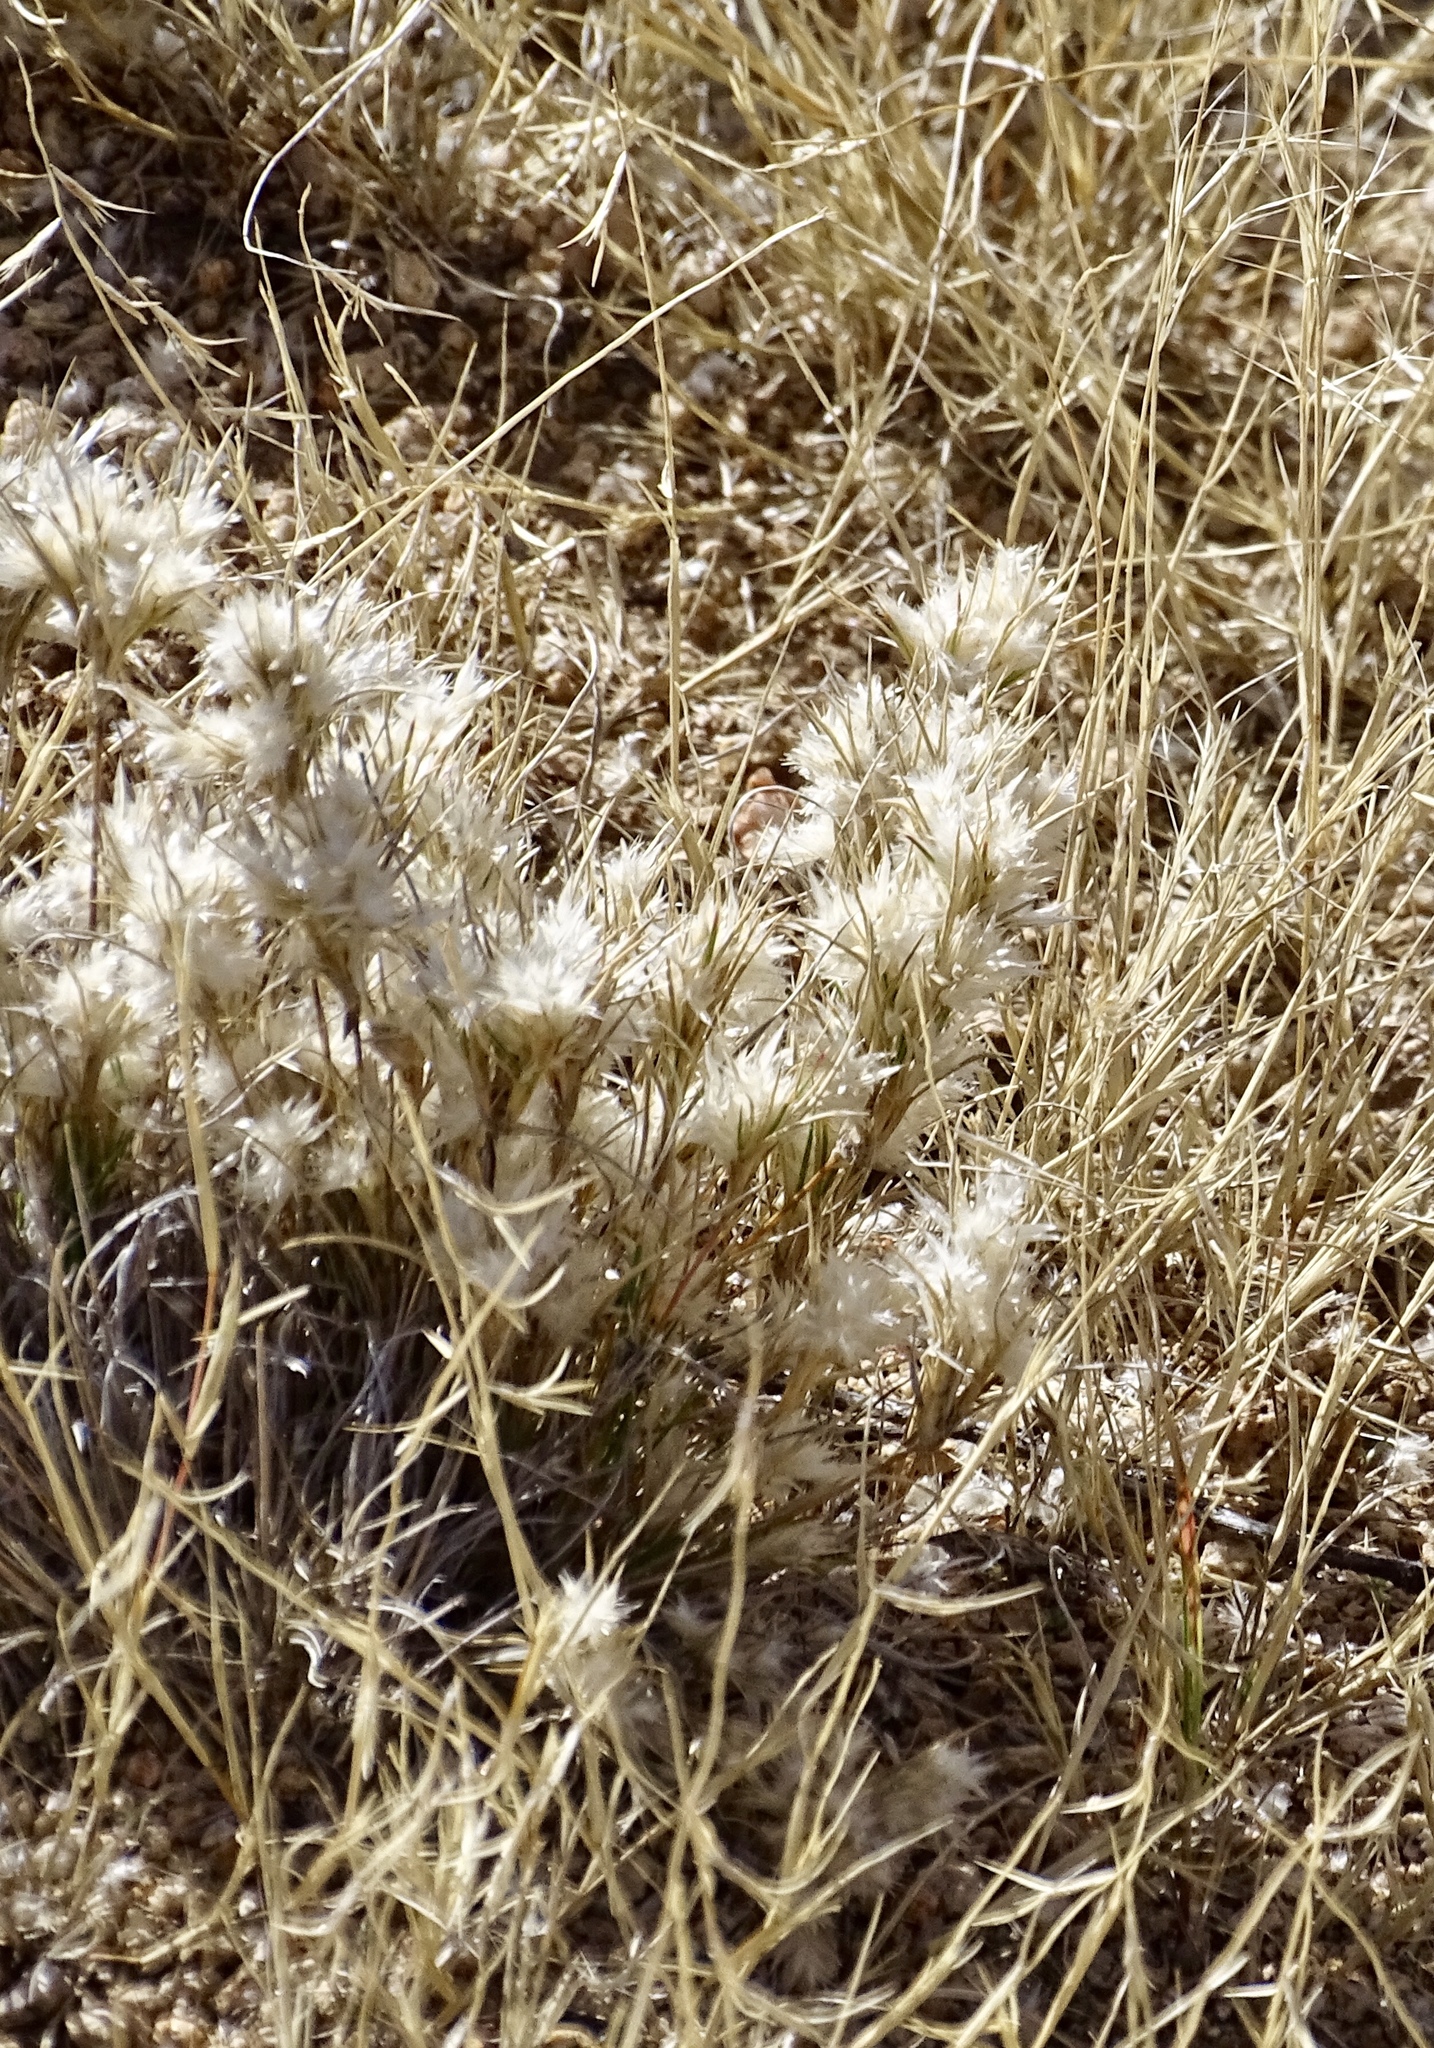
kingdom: Plantae
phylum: Tracheophyta
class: Liliopsida
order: Poales
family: Poaceae
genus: Dasyochloa
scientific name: Dasyochloa pulchella
